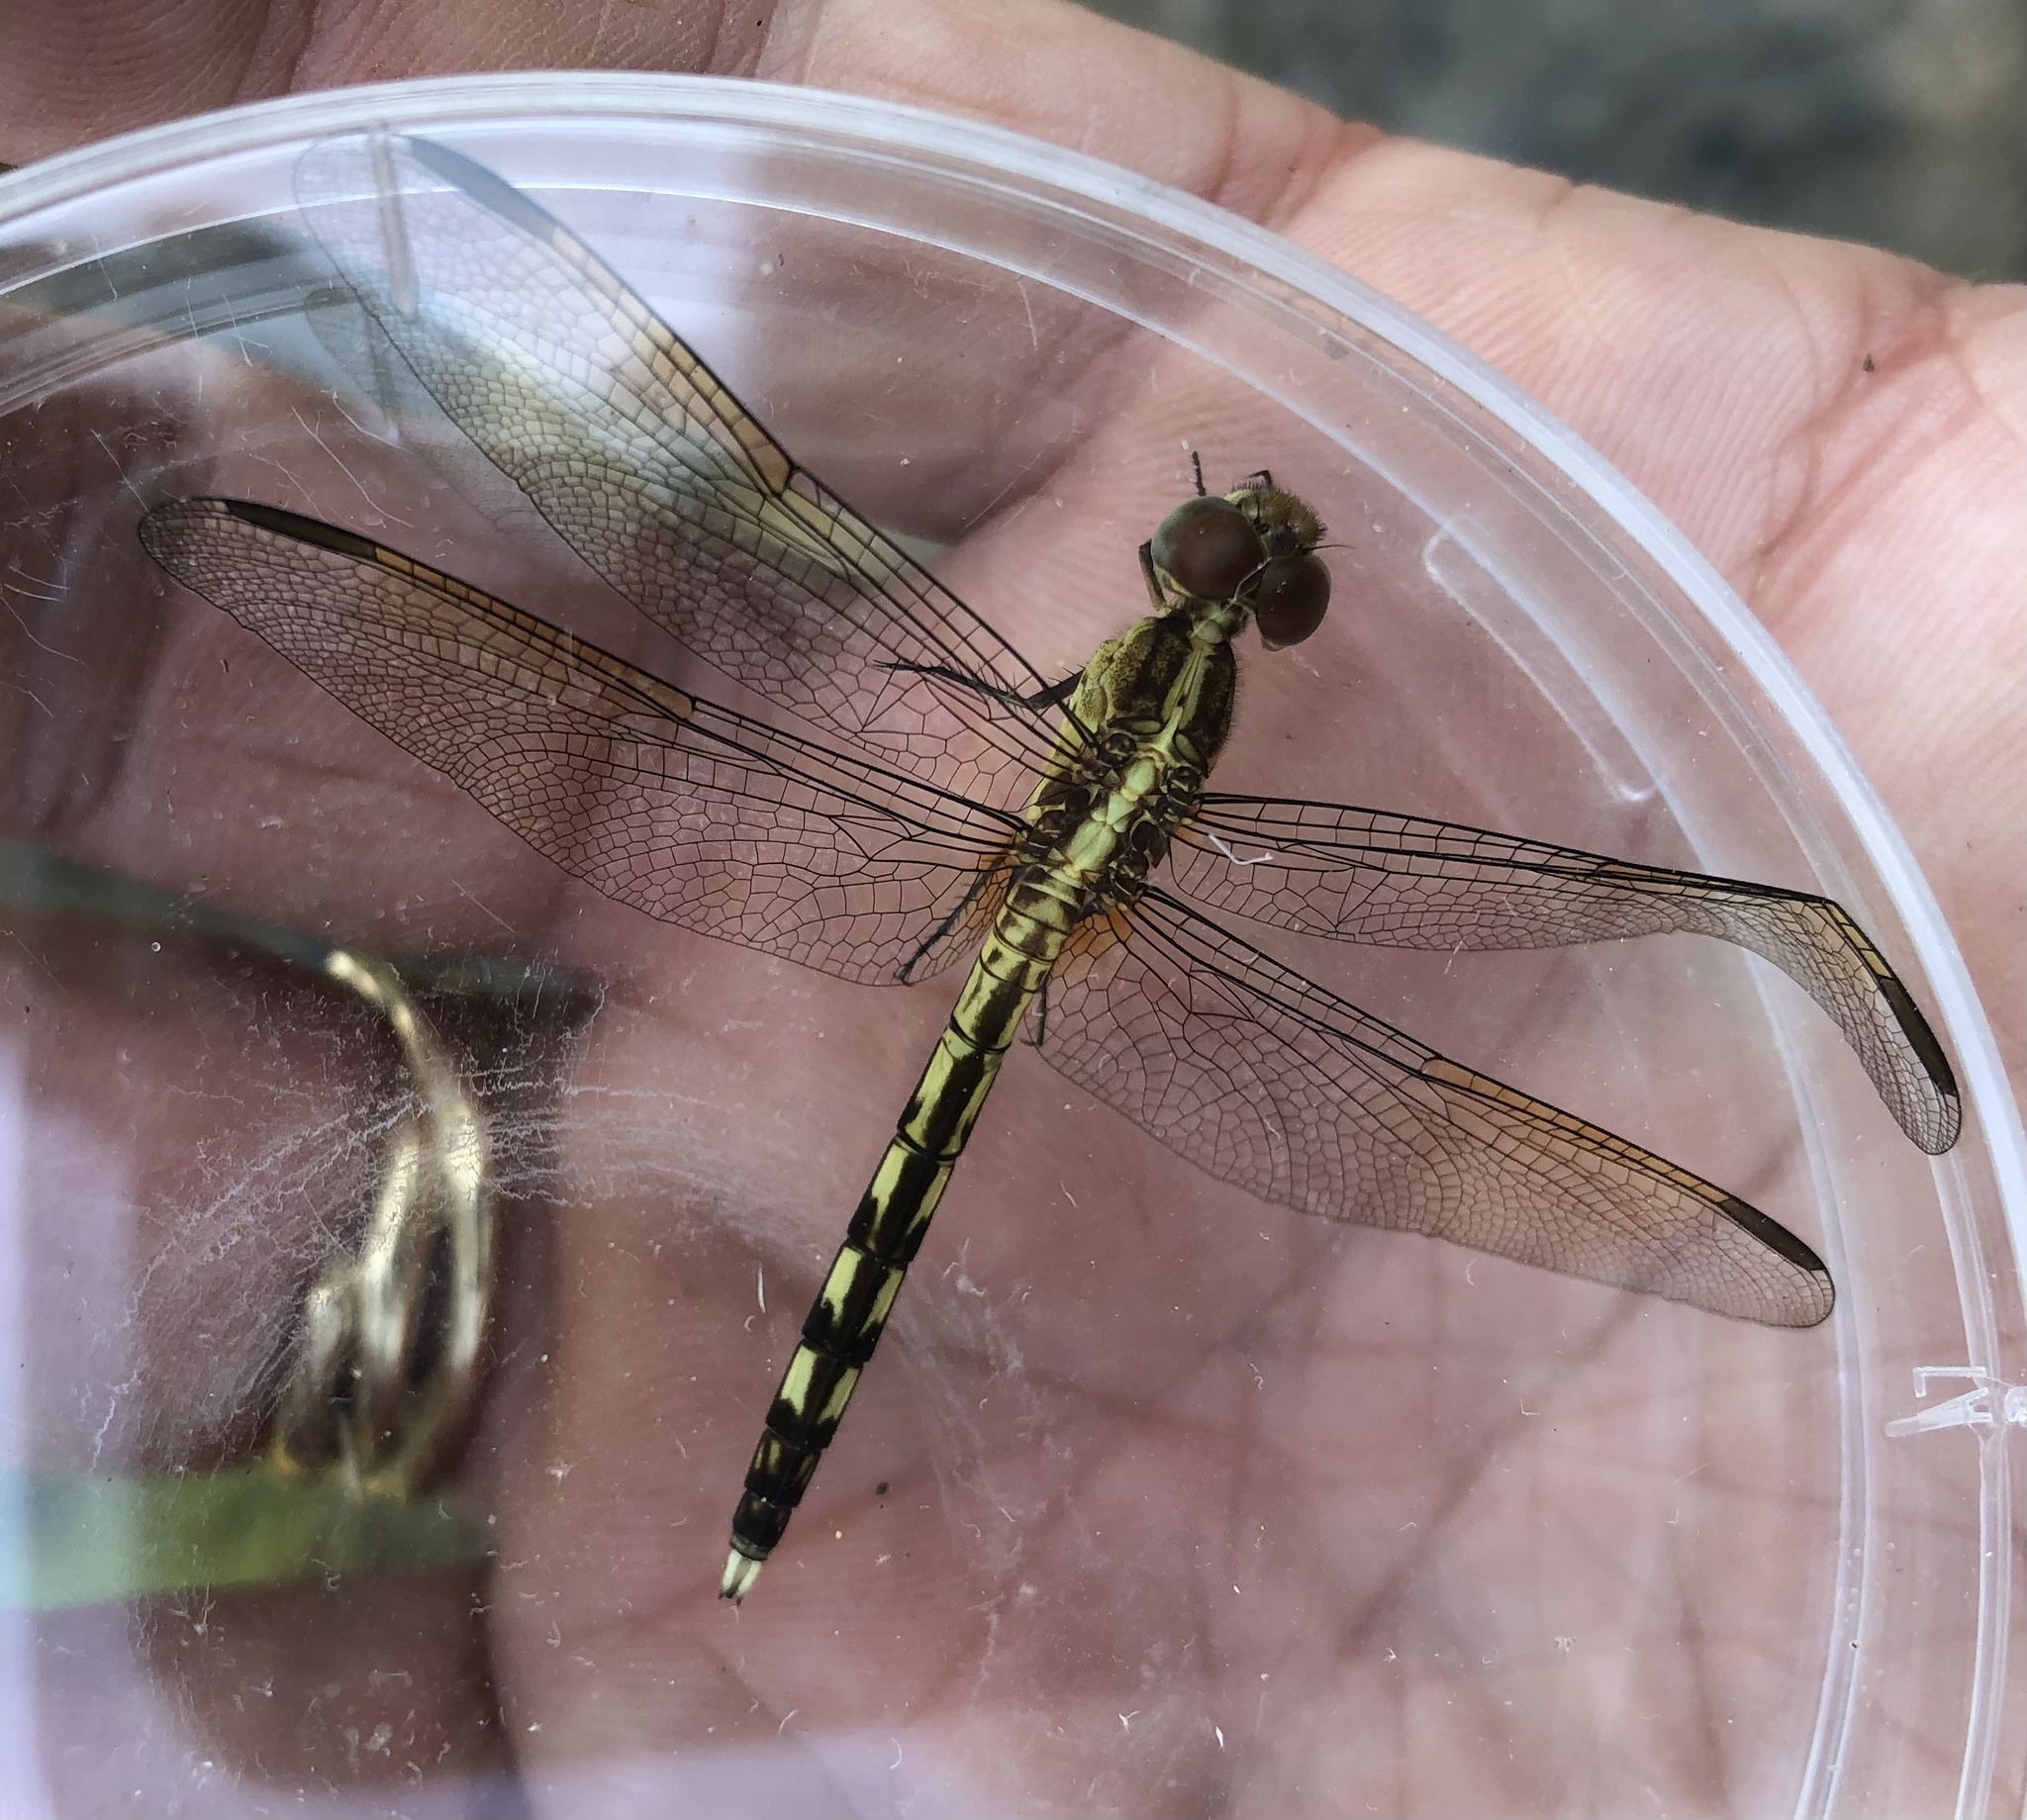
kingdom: Animalia
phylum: Arthropoda
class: Insecta
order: Odonata
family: Libellulidae
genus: Erythrodiplax
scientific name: Erythrodiplax umbrata
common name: Band-winged dragonlet
